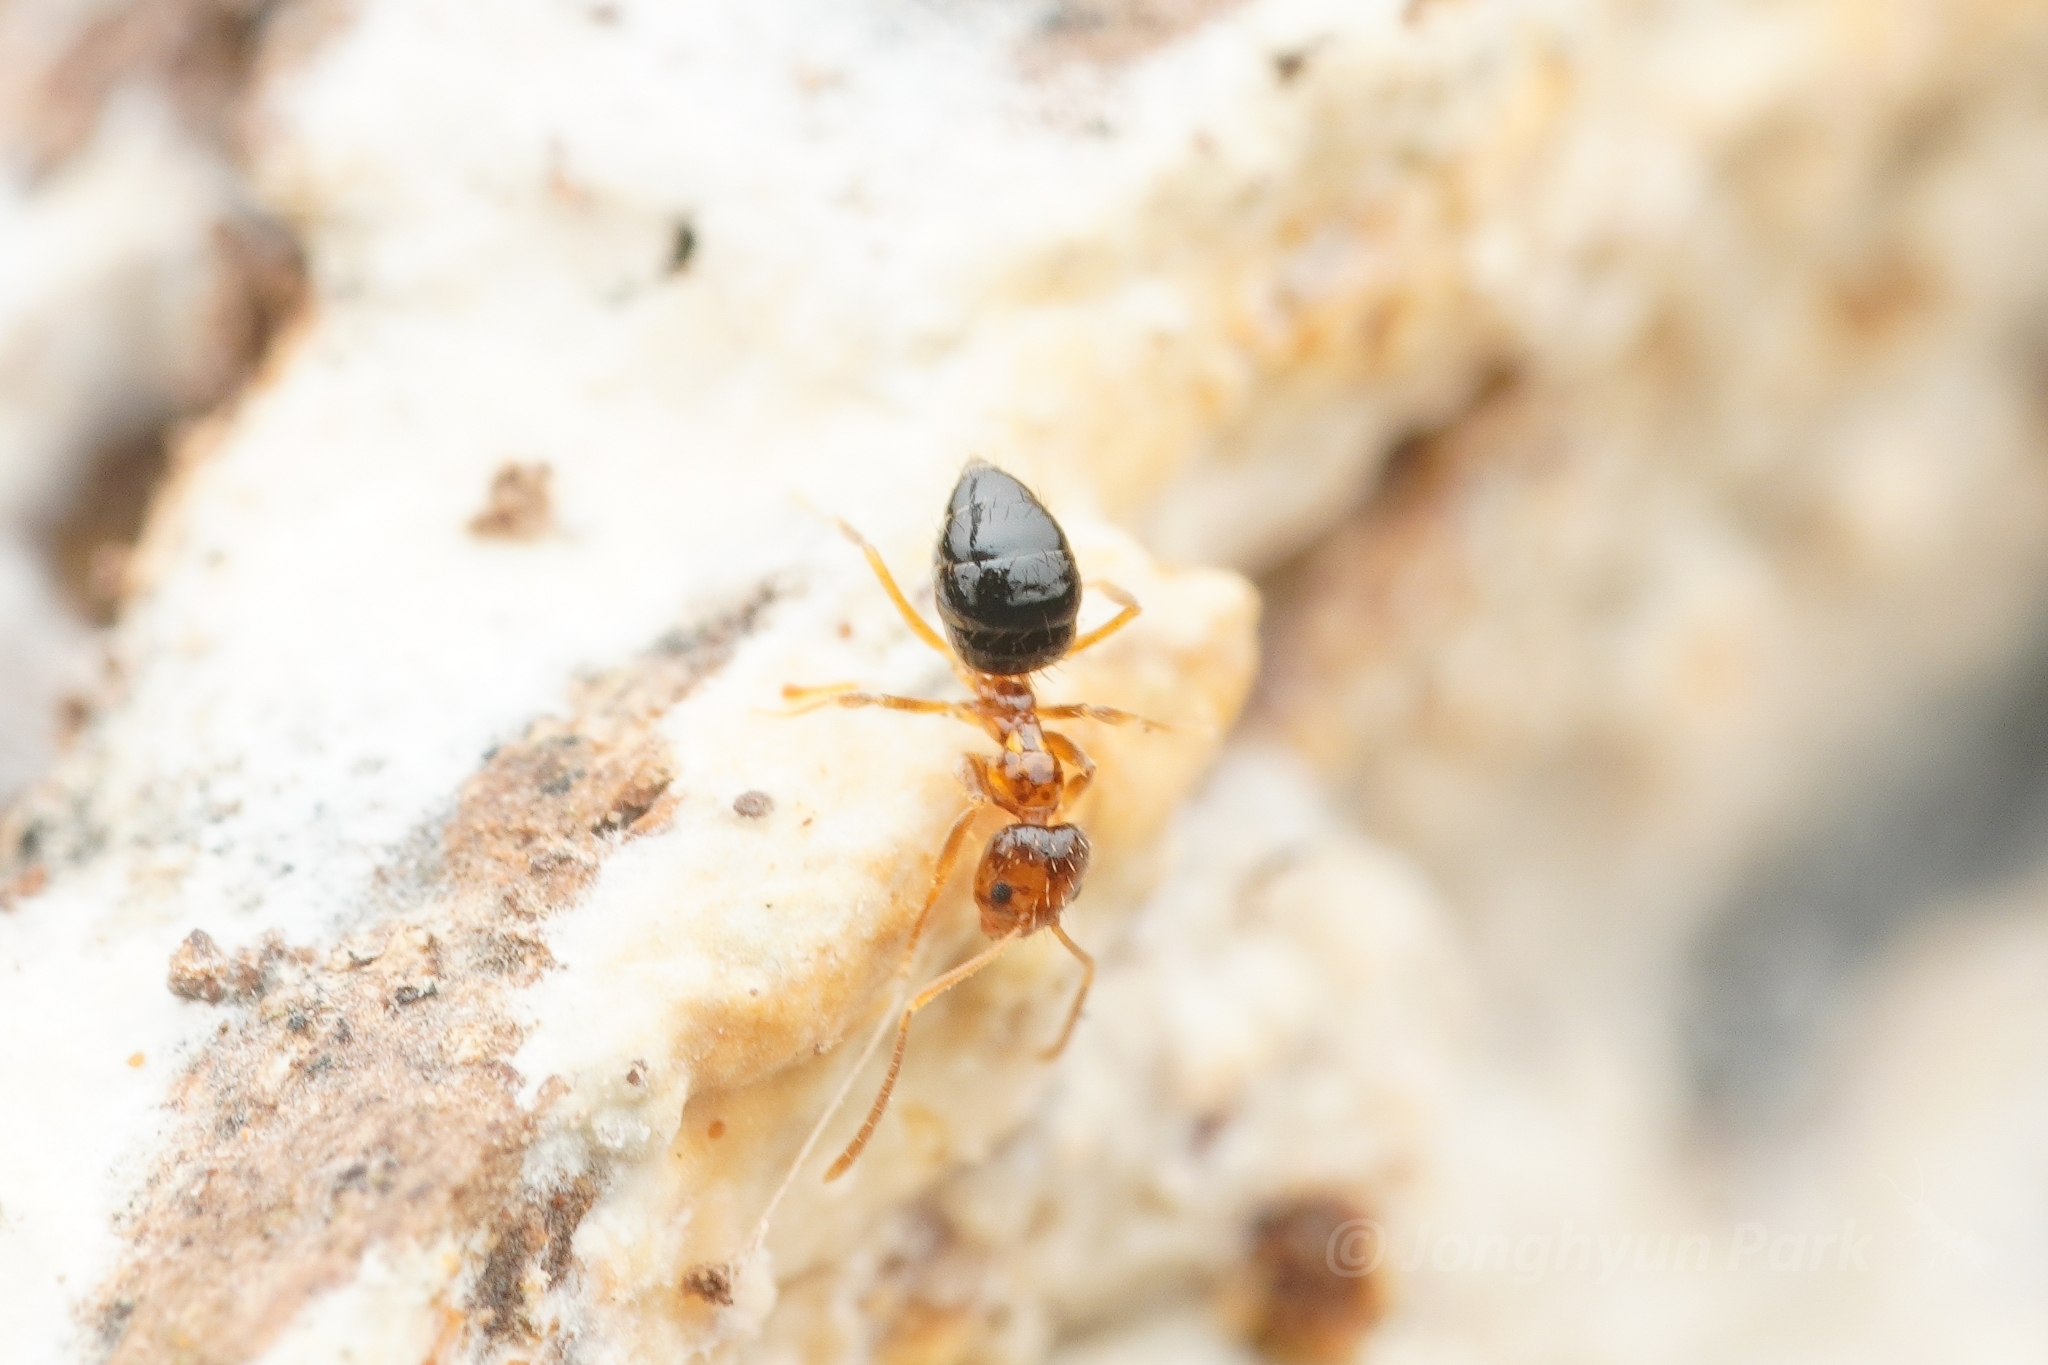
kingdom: Animalia
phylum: Arthropoda
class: Insecta
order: Hymenoptera
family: Formicidae
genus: Paratrechina
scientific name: Paratrechina flavipes
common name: Eastern asian formicine ant
